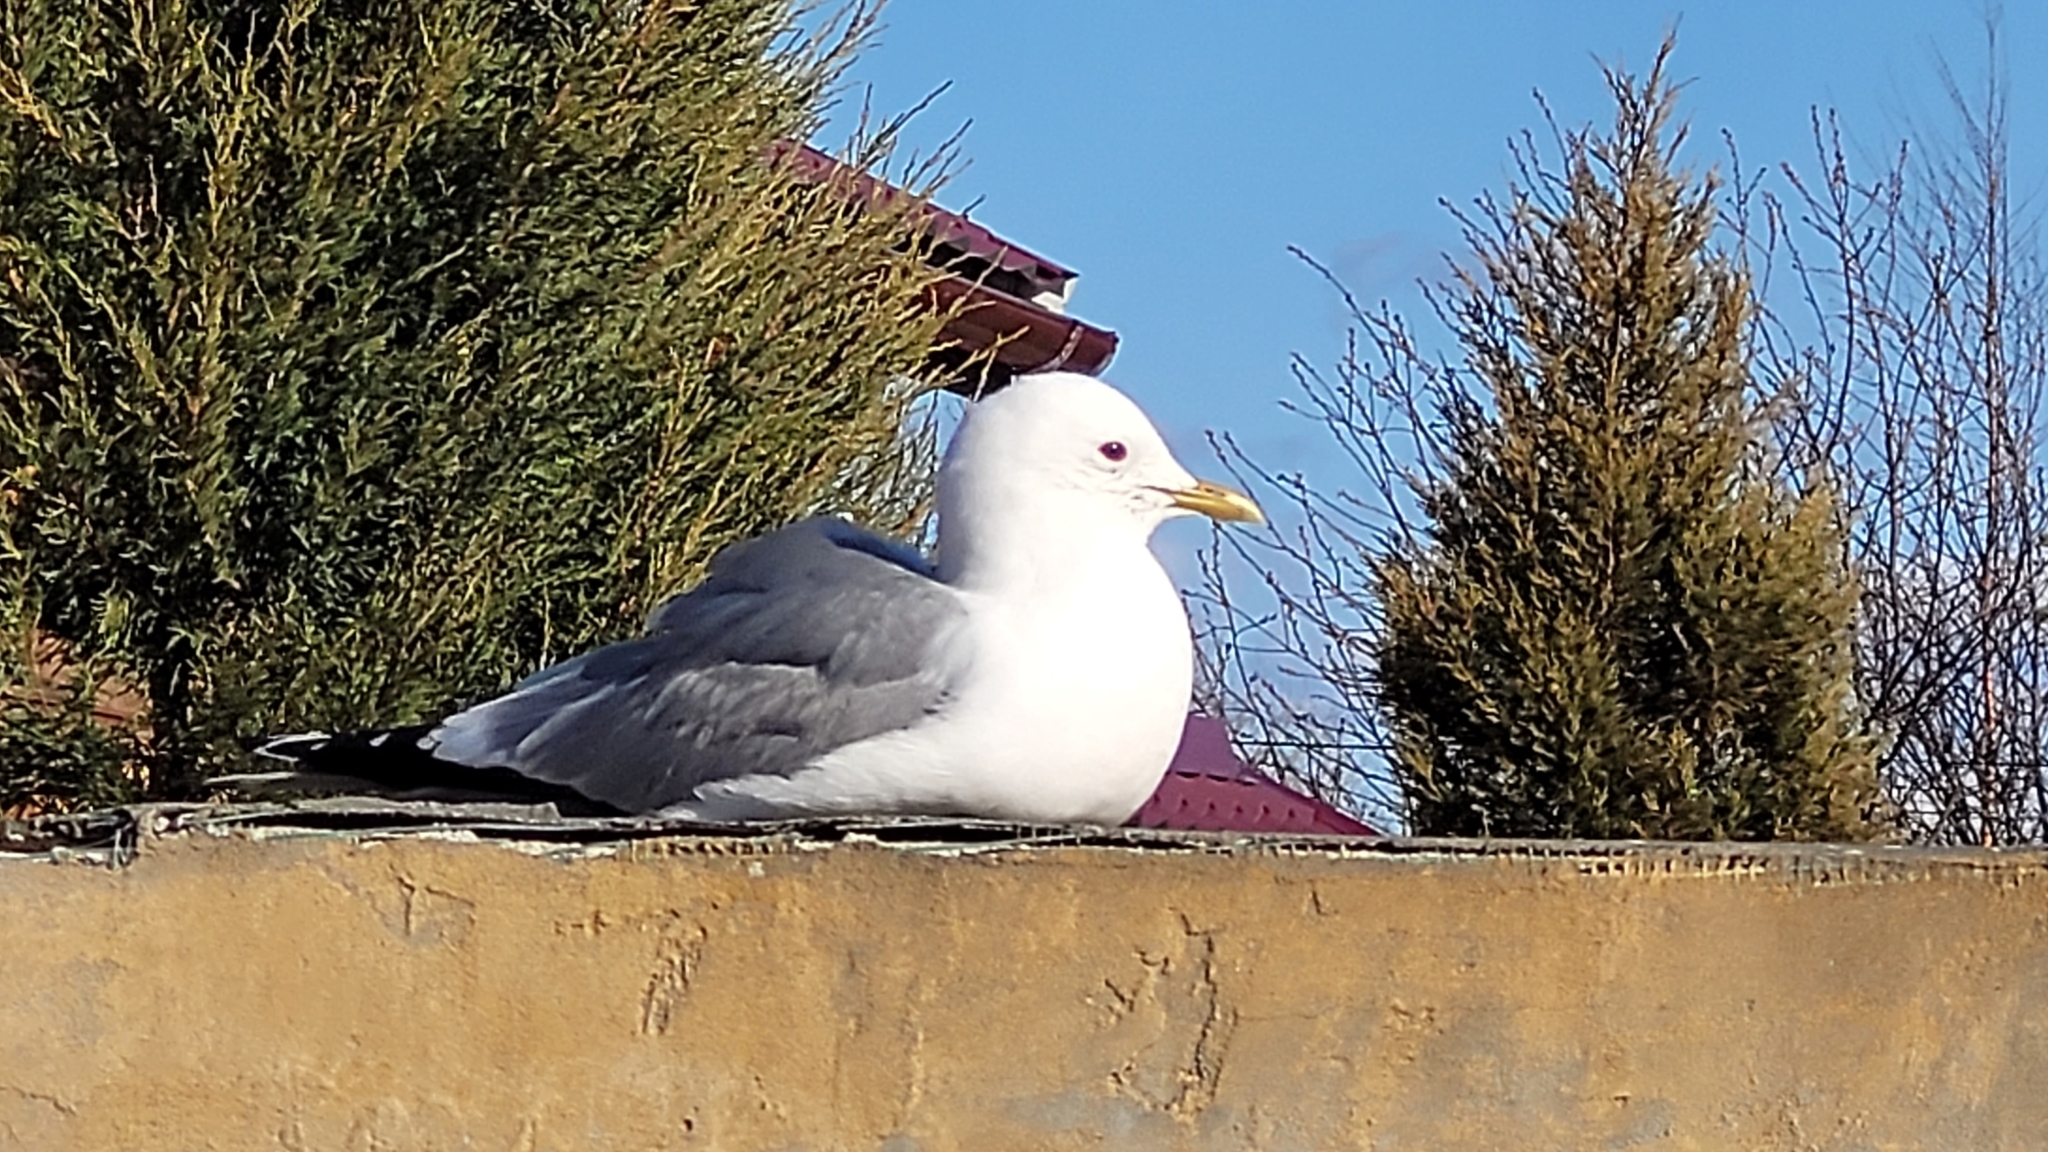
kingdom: Animalia
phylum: Chordata
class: Aves
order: Charadriiformes
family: Laridae
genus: Larus
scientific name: Larus canus
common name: Mew gull
